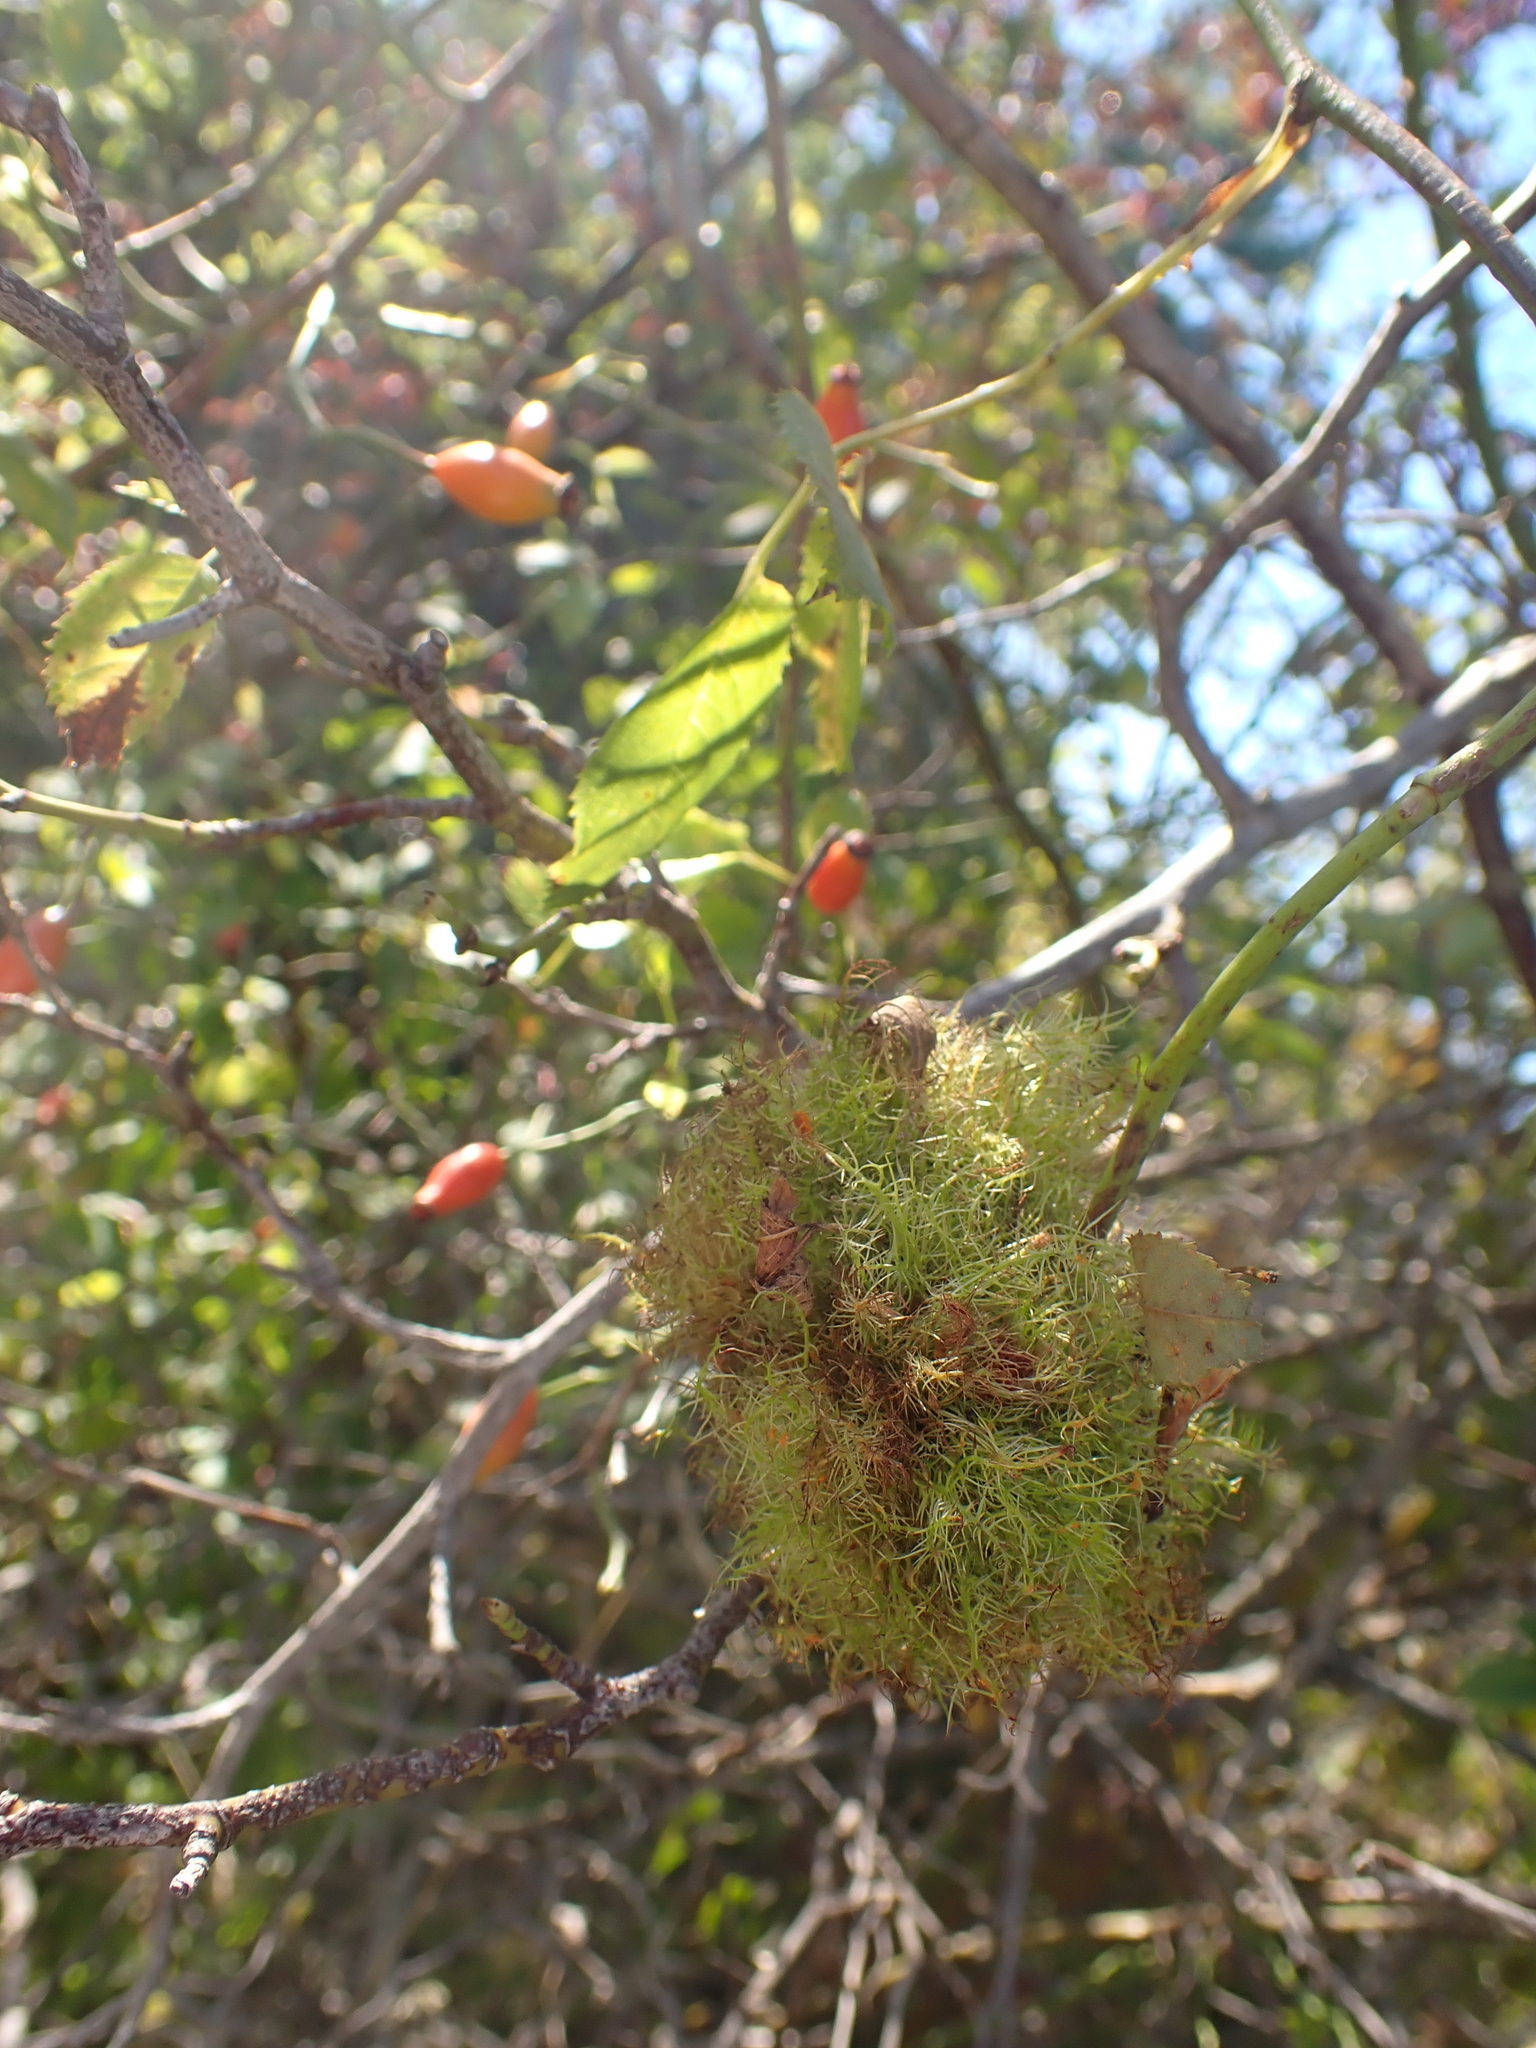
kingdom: Animalia
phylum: Arthropoda
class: Insecta
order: Hymenoptera
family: Cynipidae
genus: Diplolepis
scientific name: Diplolepis rosae
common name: Bedeguar gall
